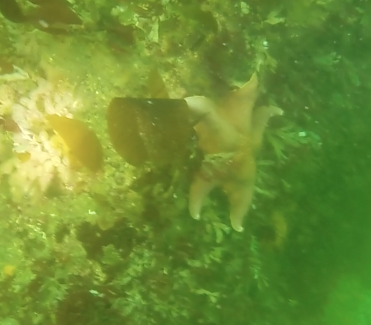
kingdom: Animalia
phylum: Echinodermata
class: Asteroidea
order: Valvatida
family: Asterinidae
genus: Patiria
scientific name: Patiria miniata
